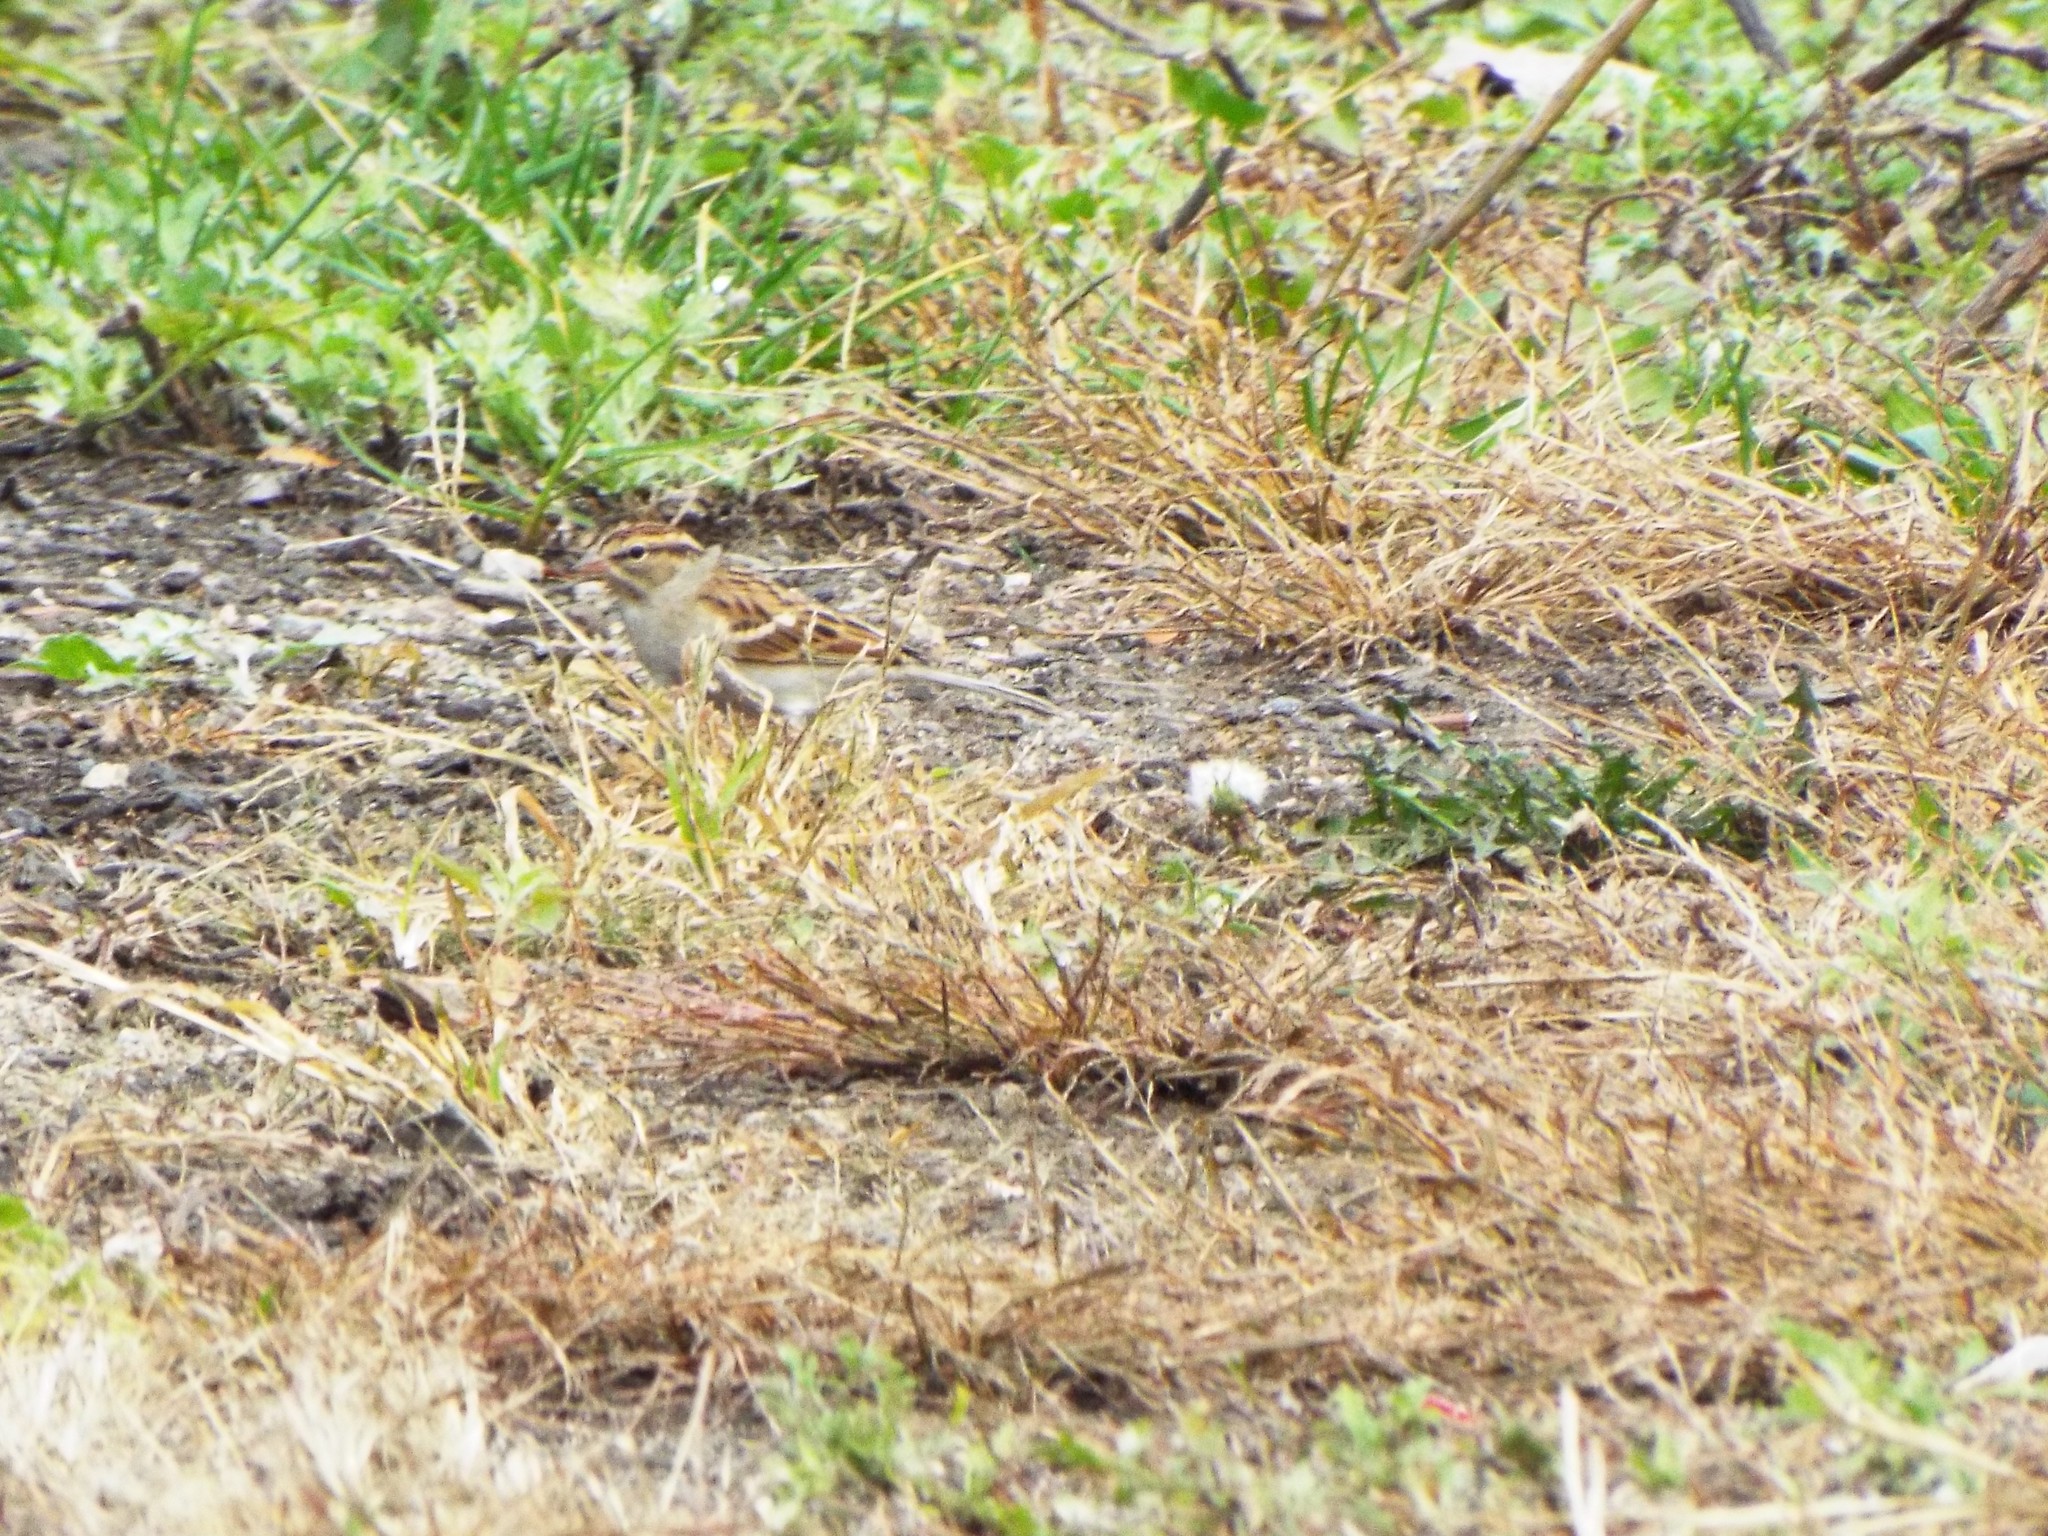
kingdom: Animalia
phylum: Chordata
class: Aves
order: Passeriformes
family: Passerellidae
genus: Spizella
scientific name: Spizella passerina
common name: Chipping sparrow
